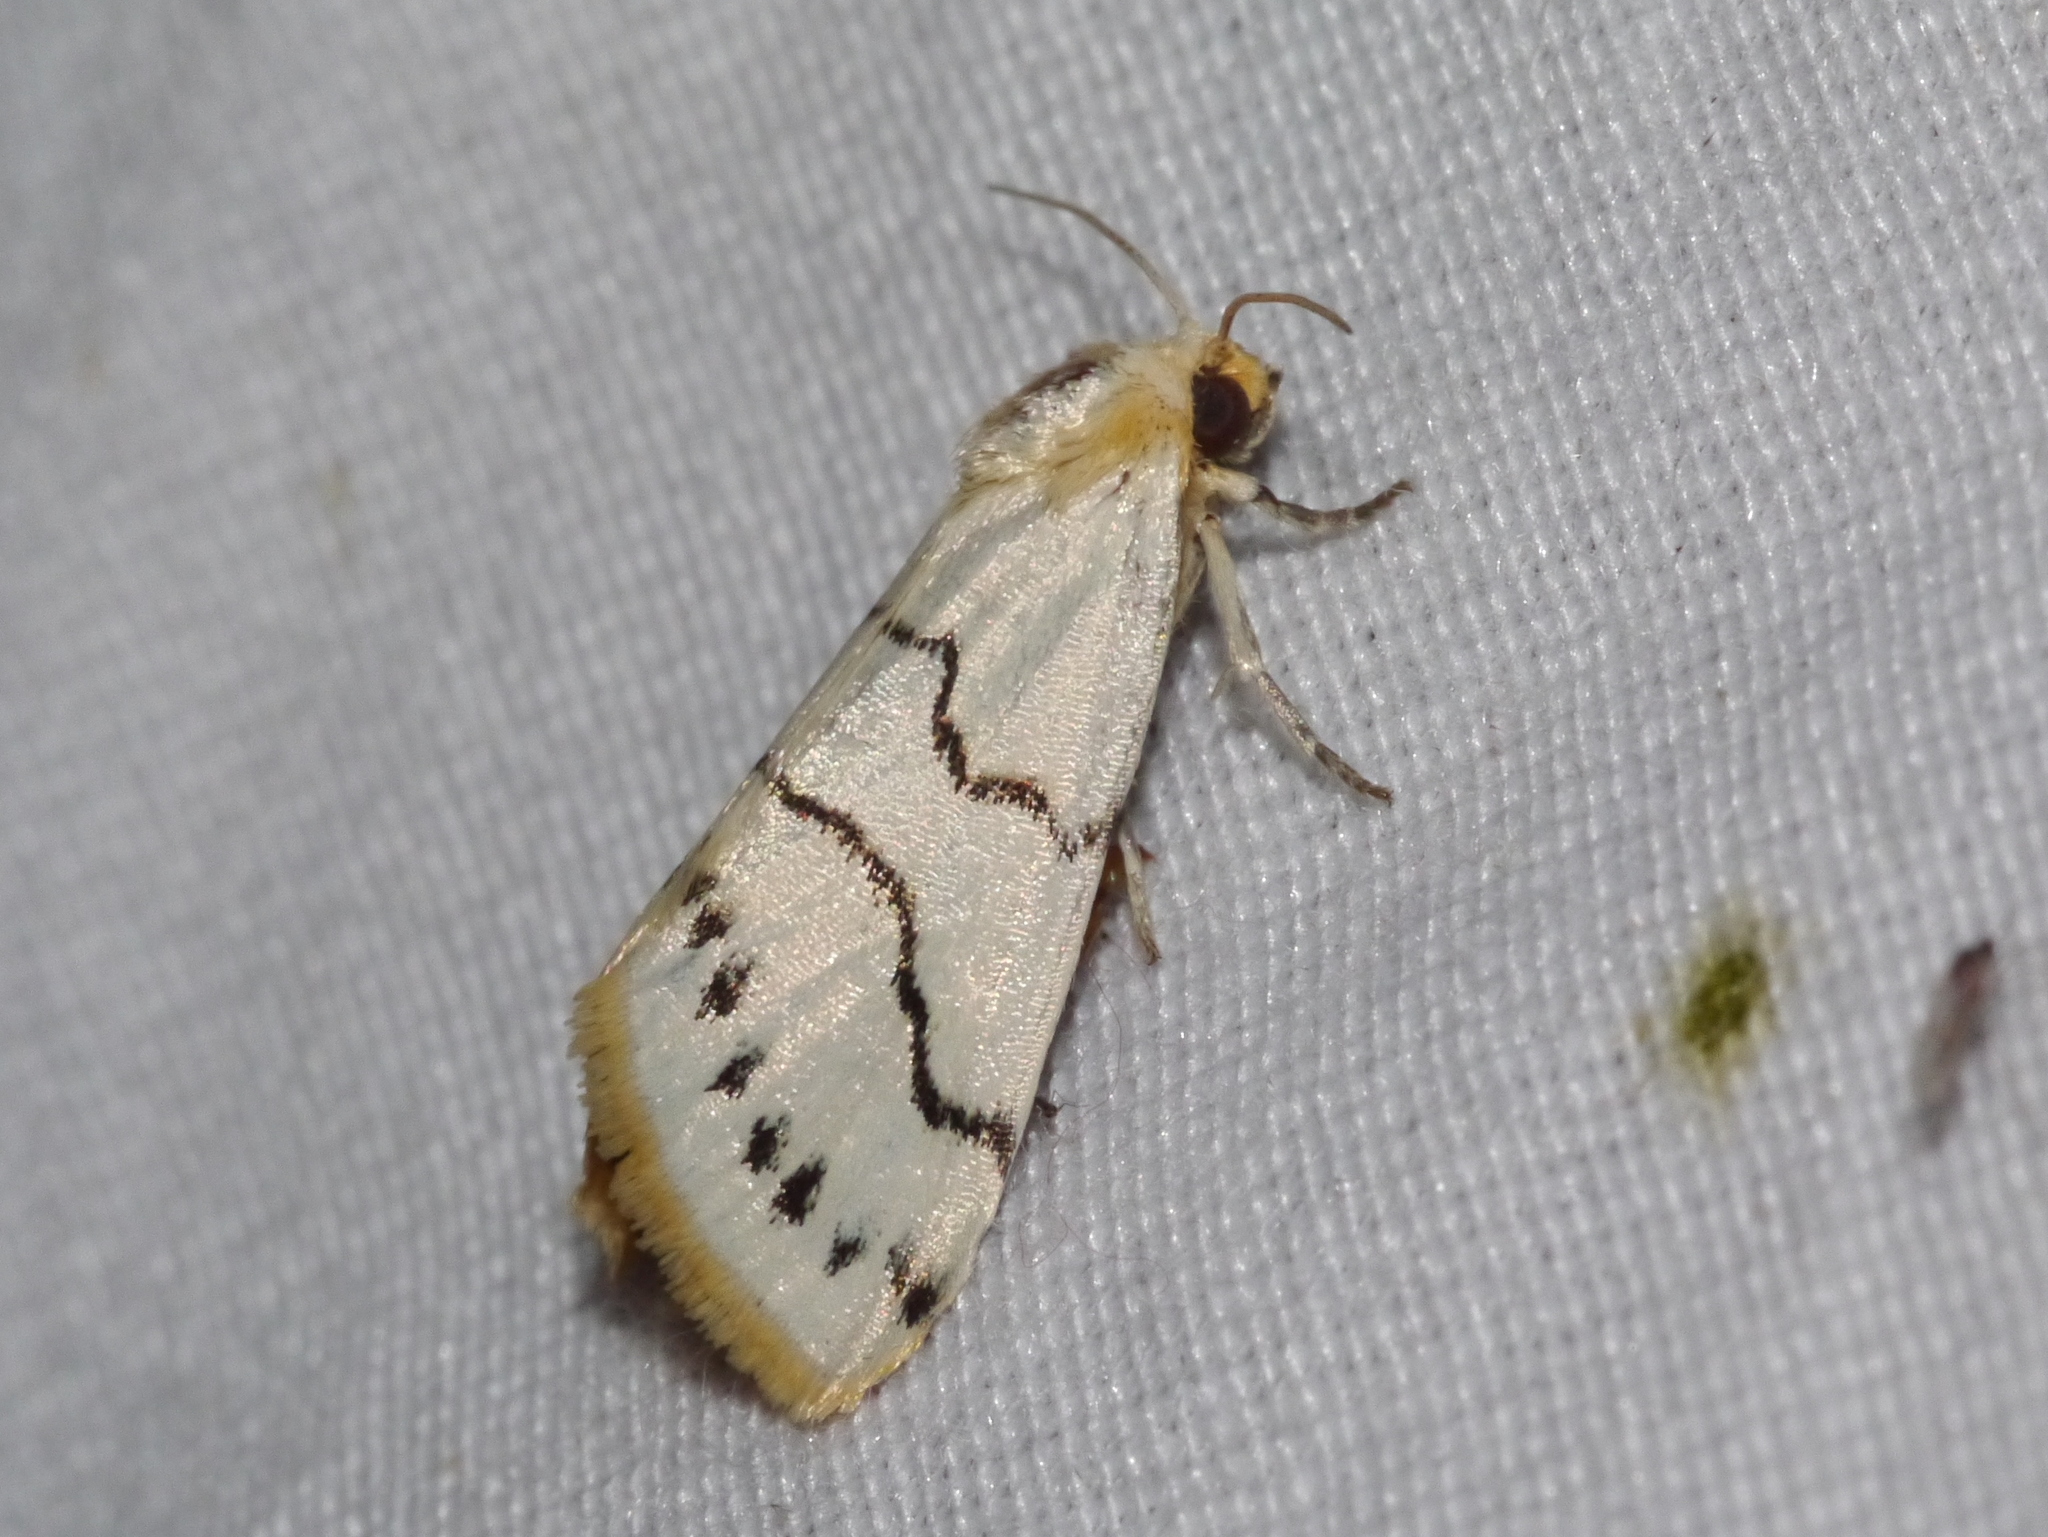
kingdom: Animalia
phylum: Arthropoda
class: Insecta
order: Lepidoptera
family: Noctuidae
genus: Lineostriastiria
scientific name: Lineostriastiria sexseriata
